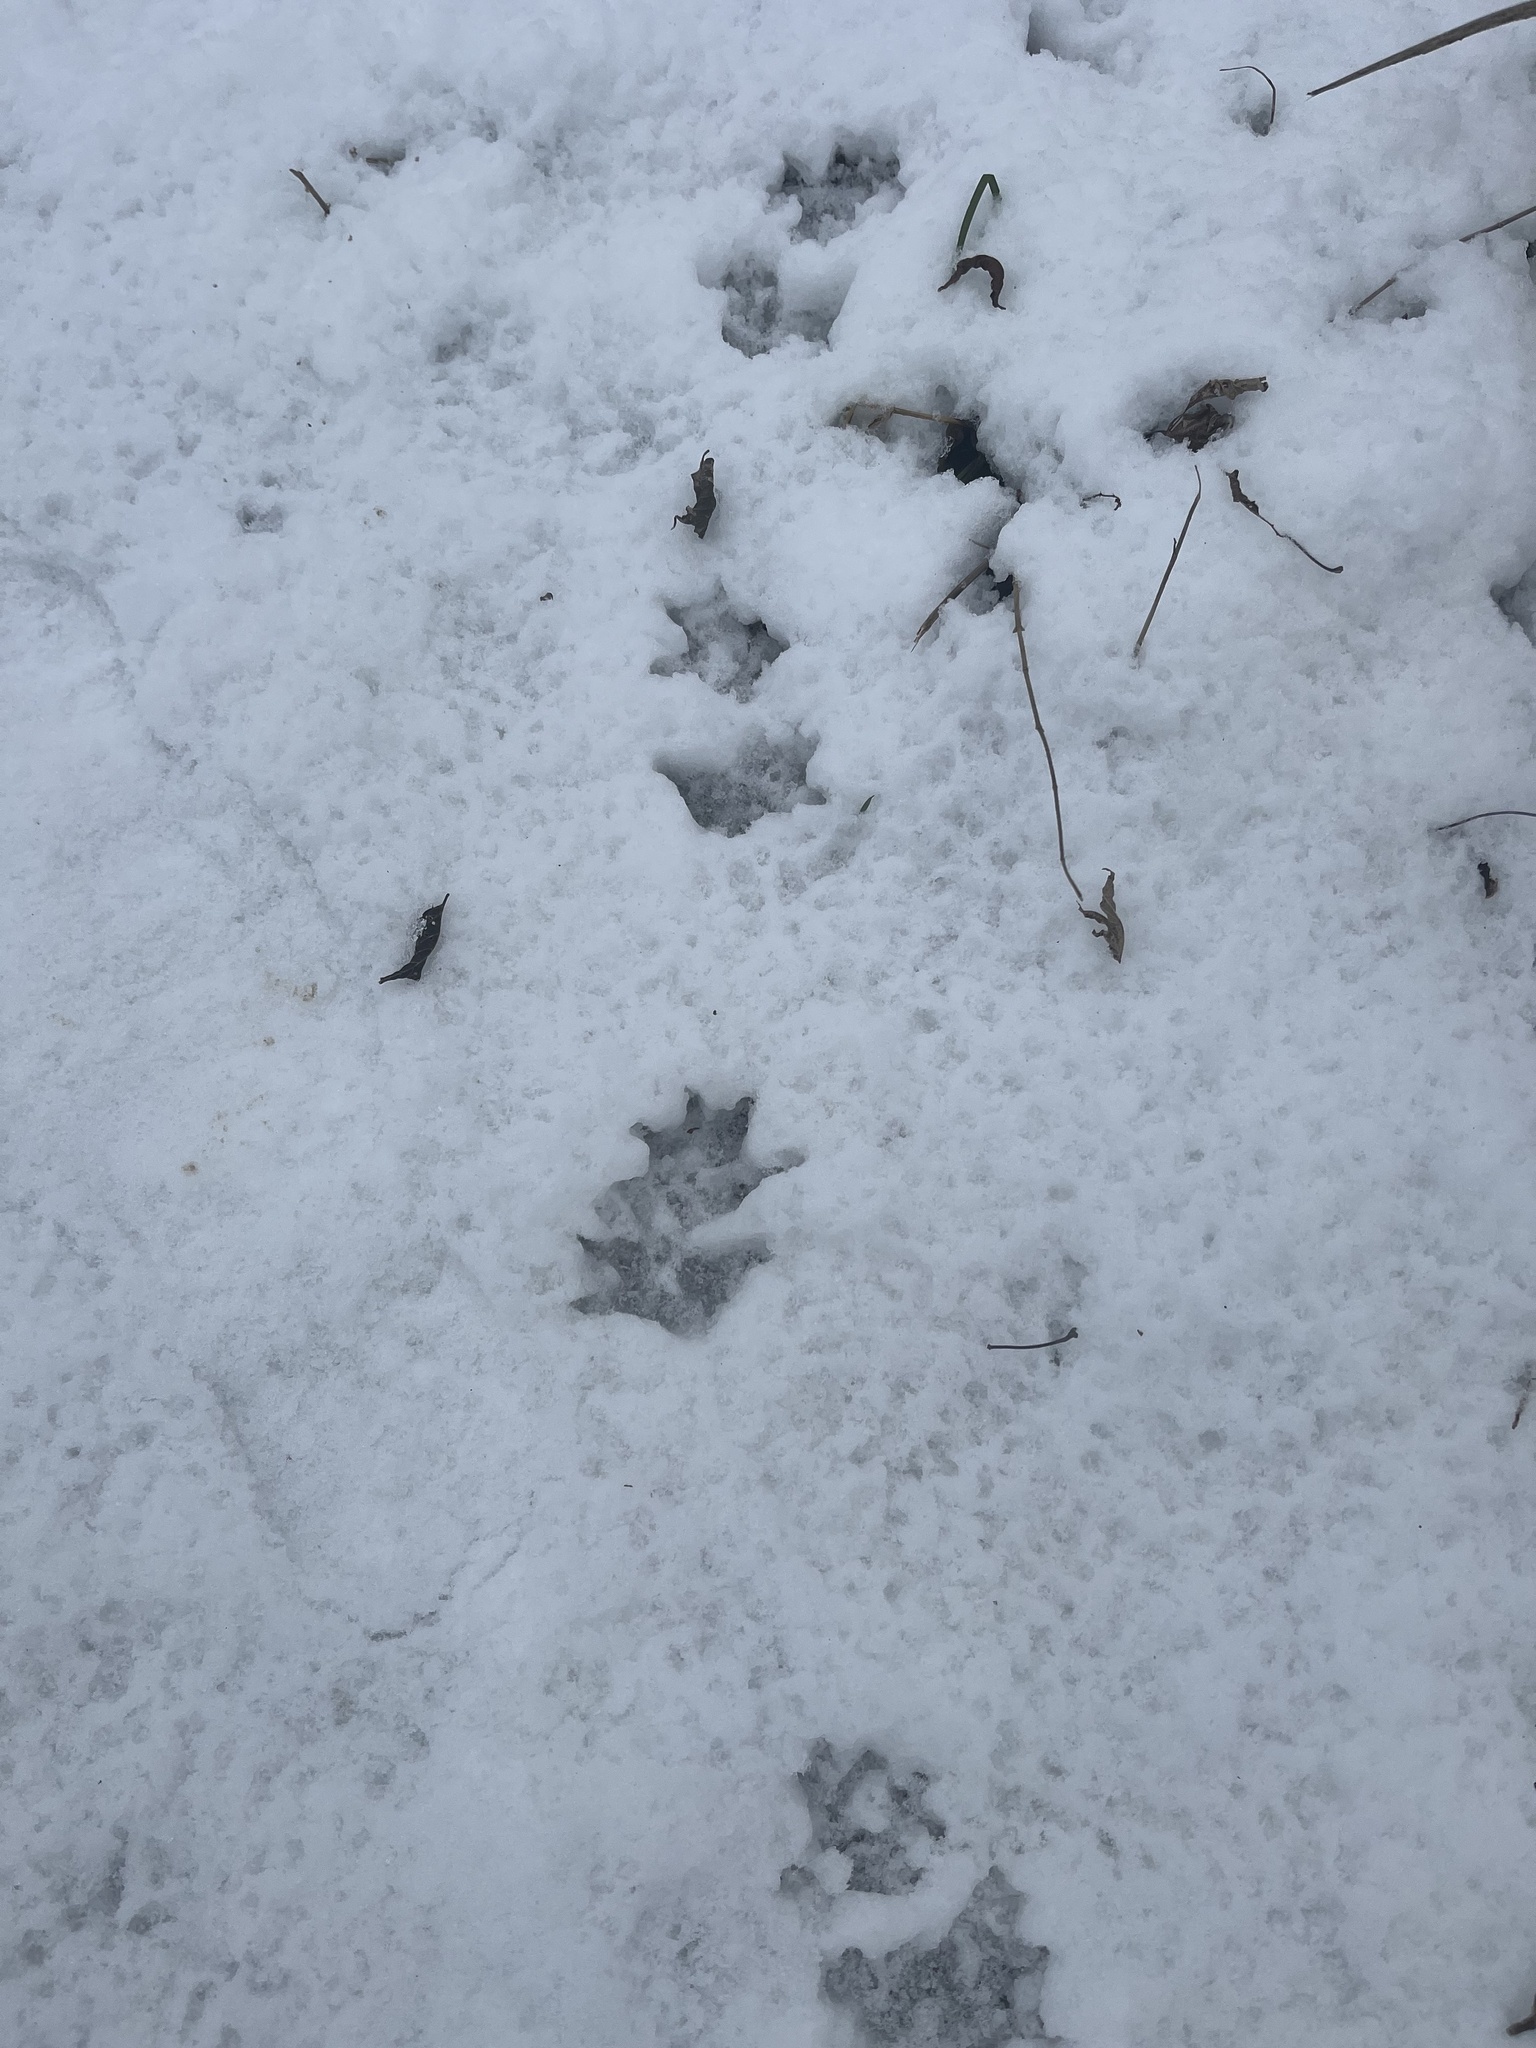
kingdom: Animalia
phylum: Chordata
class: Mammalia
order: Didelphimorphia
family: Didelphidae
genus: Didelphis
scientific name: Didelphis virginiana
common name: Virginia opossum
